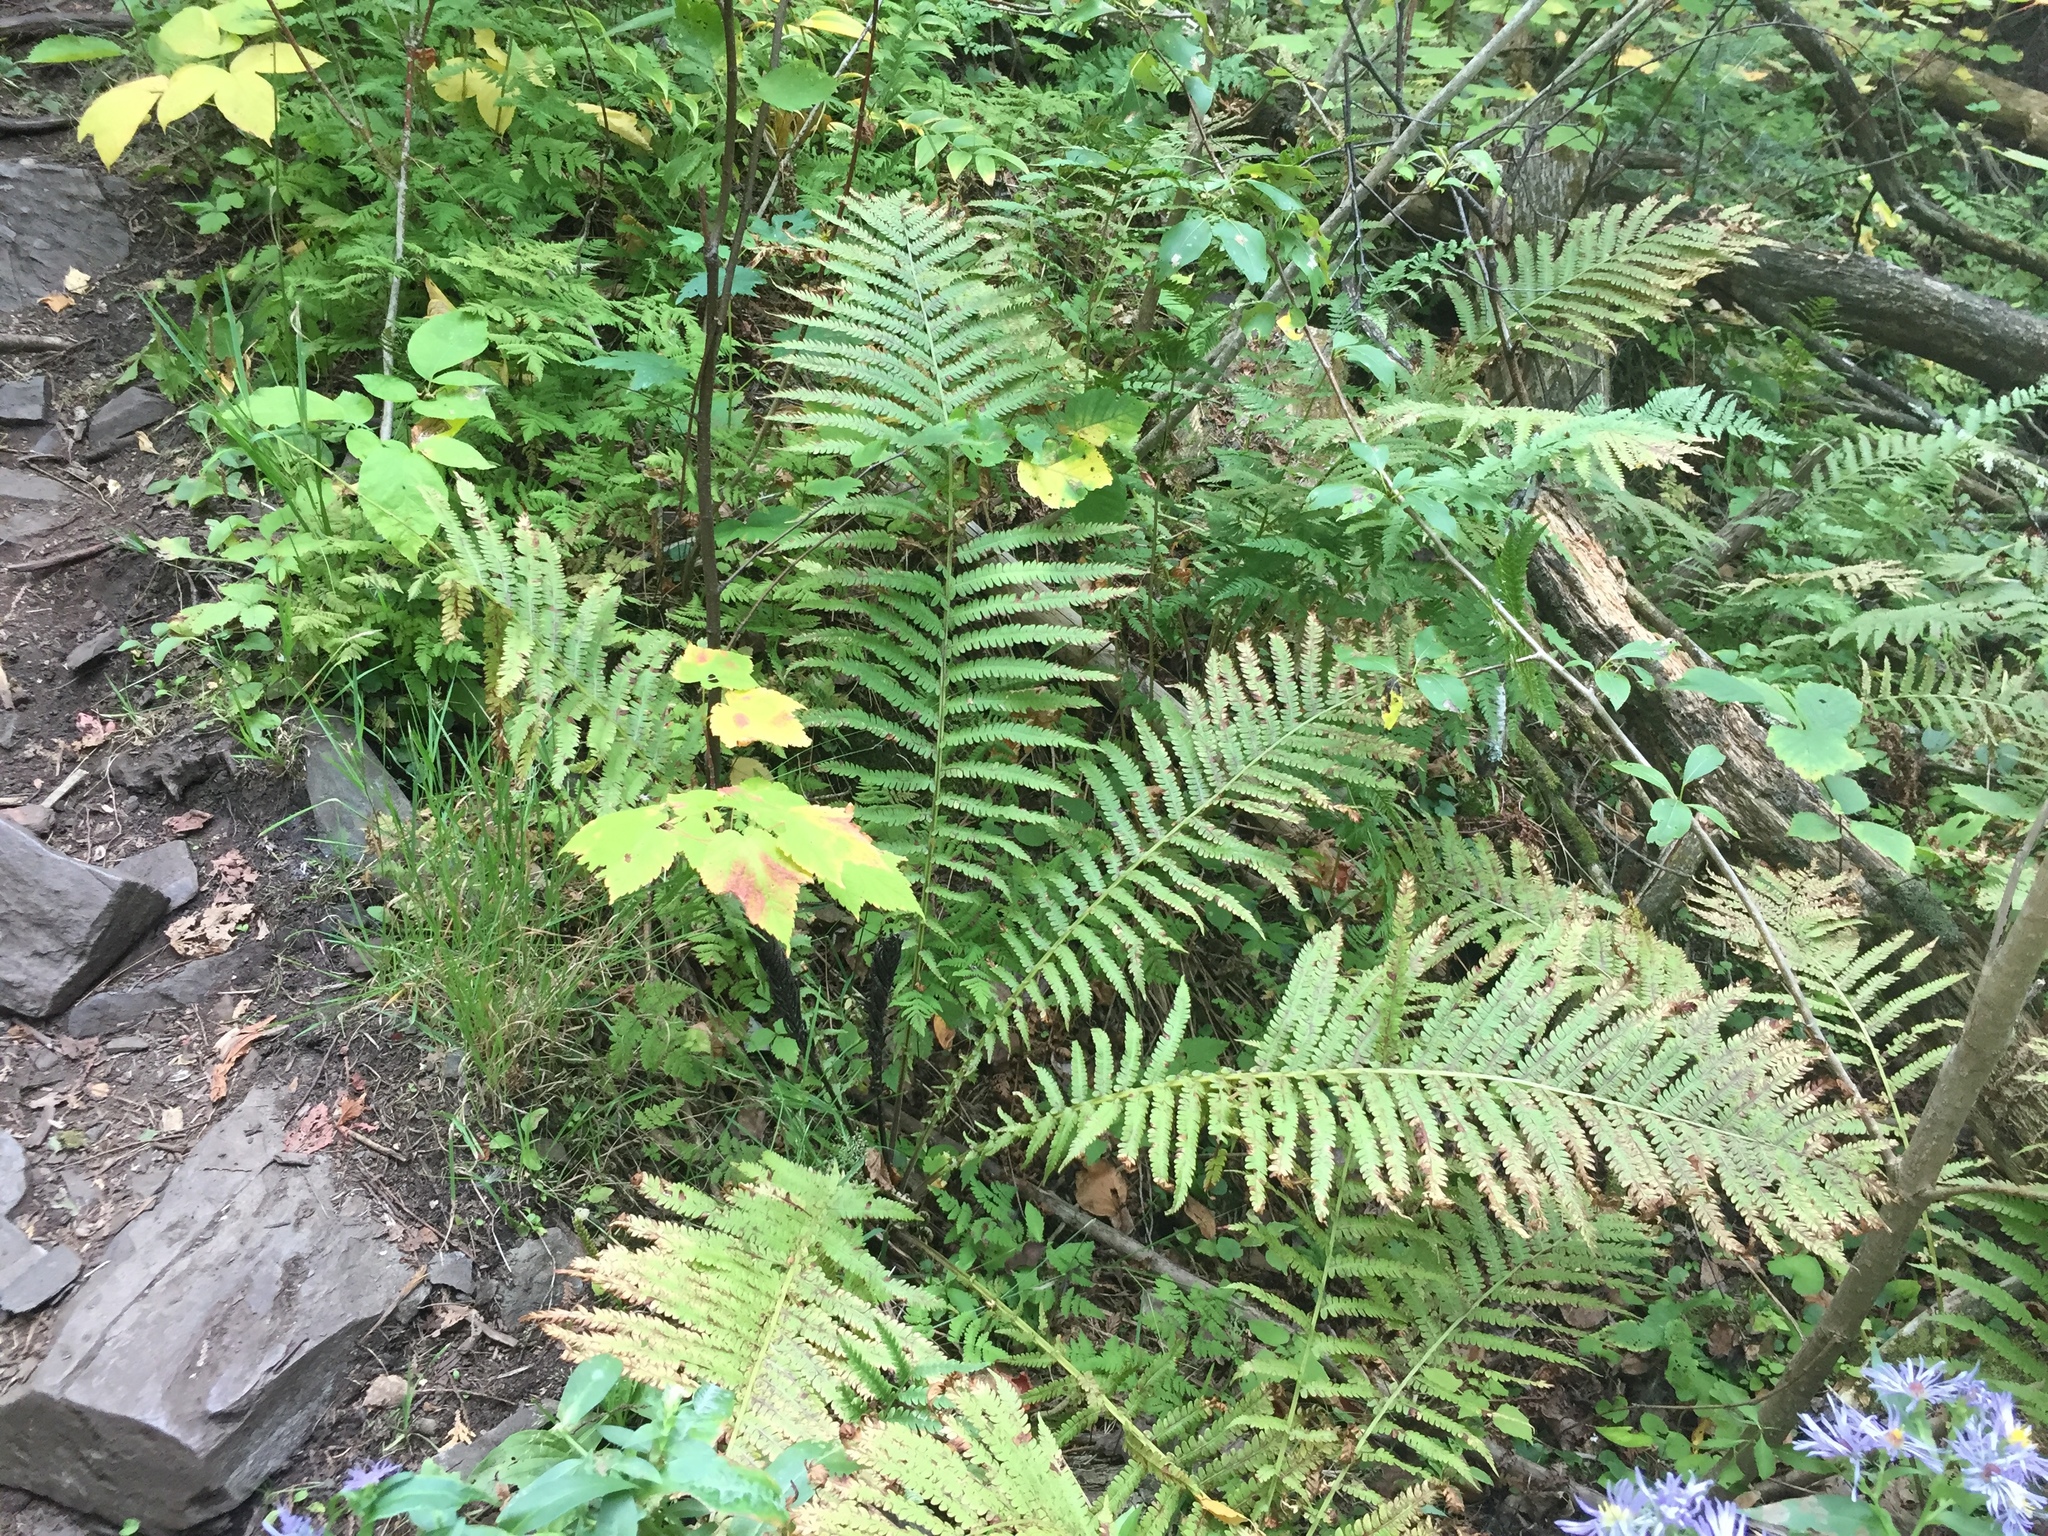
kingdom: Plantae
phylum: Tracheophyta
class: Polypodiopsida
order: Polypodiales
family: Onocleaceae
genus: Matteuccia
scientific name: Matteuccia struthiopteris
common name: Ostrich fern
